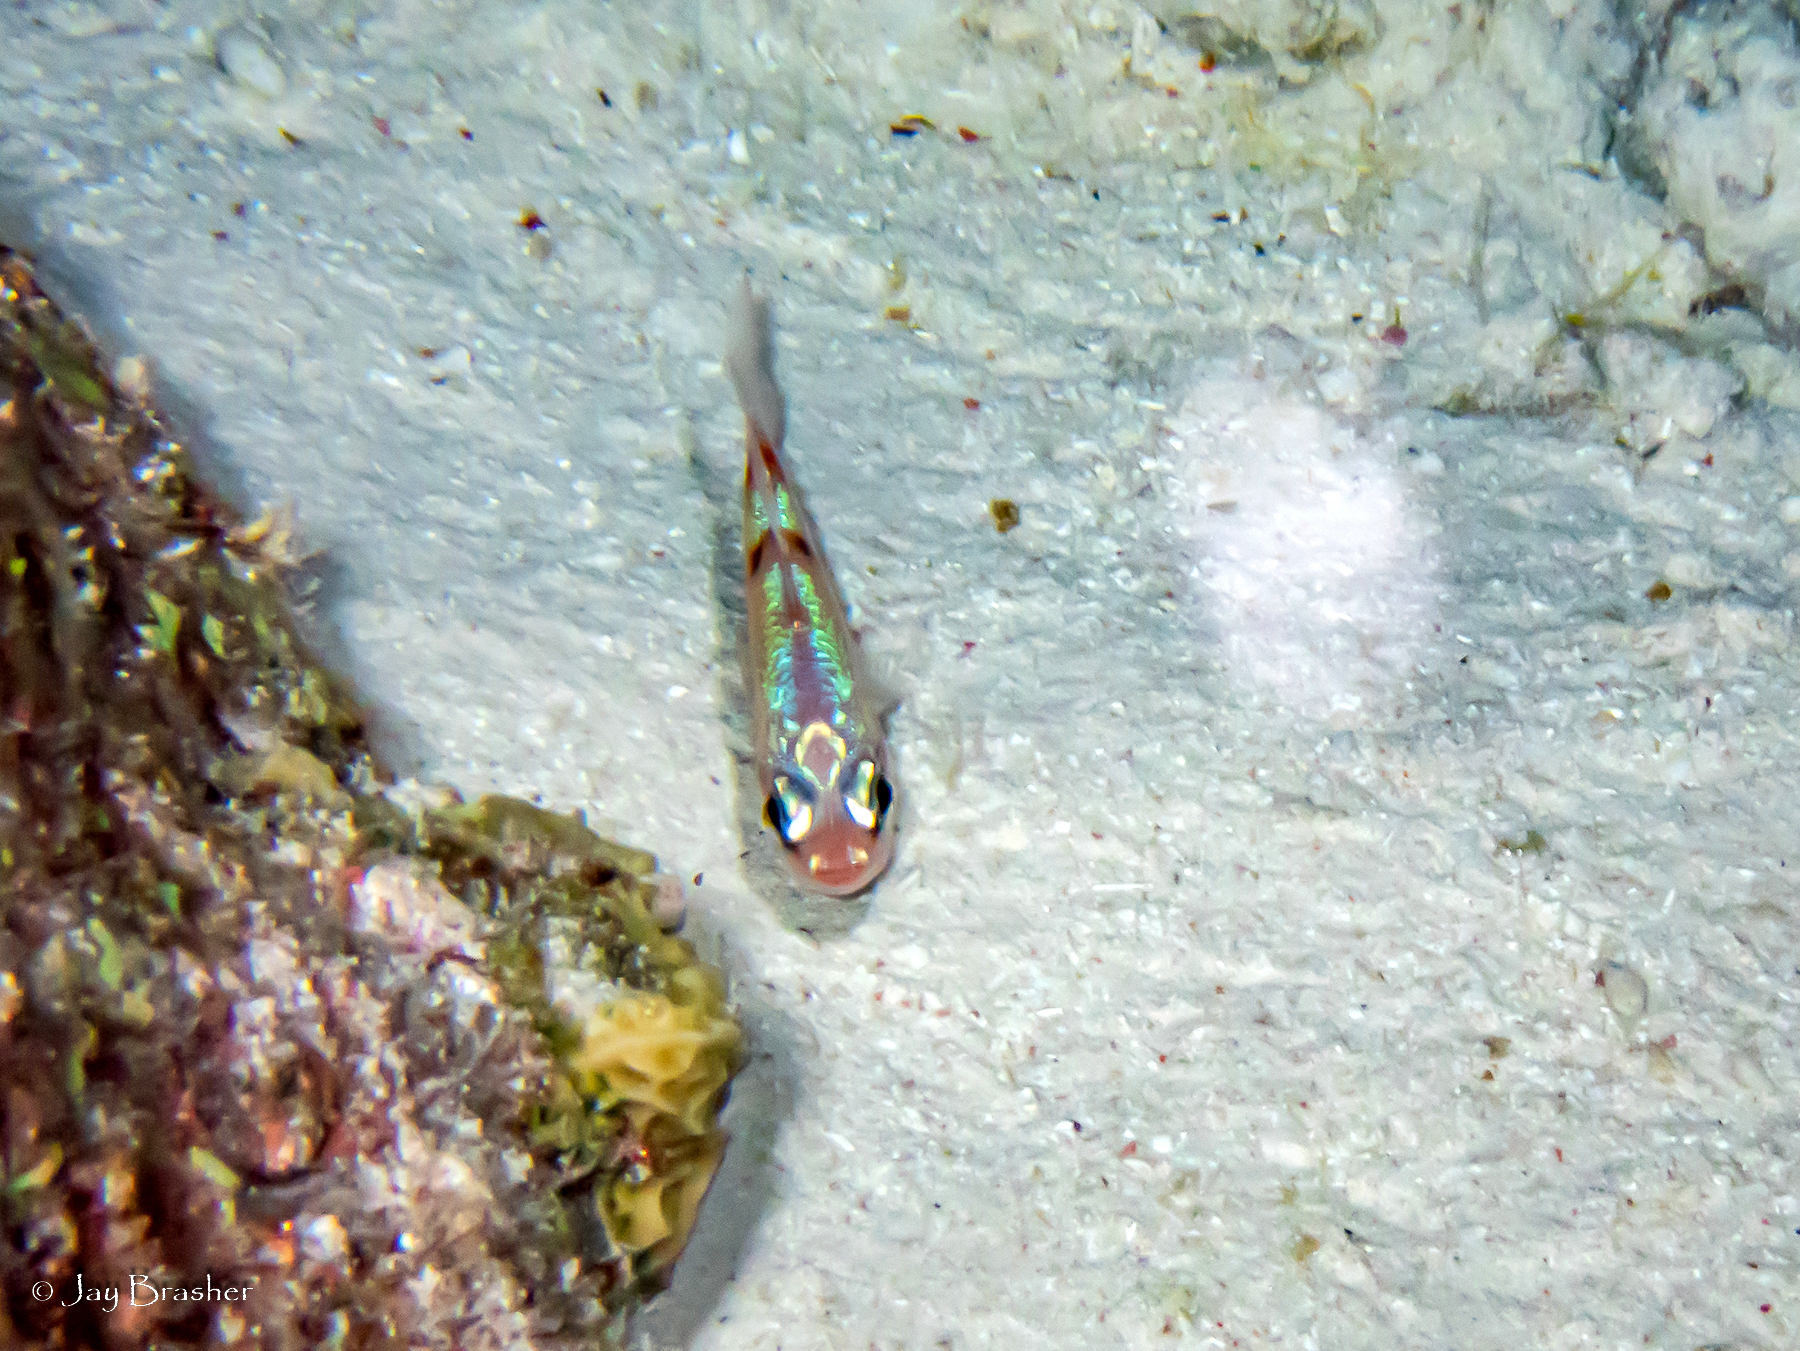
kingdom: Animalia
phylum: Chordata
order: Perciformes
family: Apogonidae
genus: Apogon
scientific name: Apogon townsendi
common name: Belted cardinalfish
